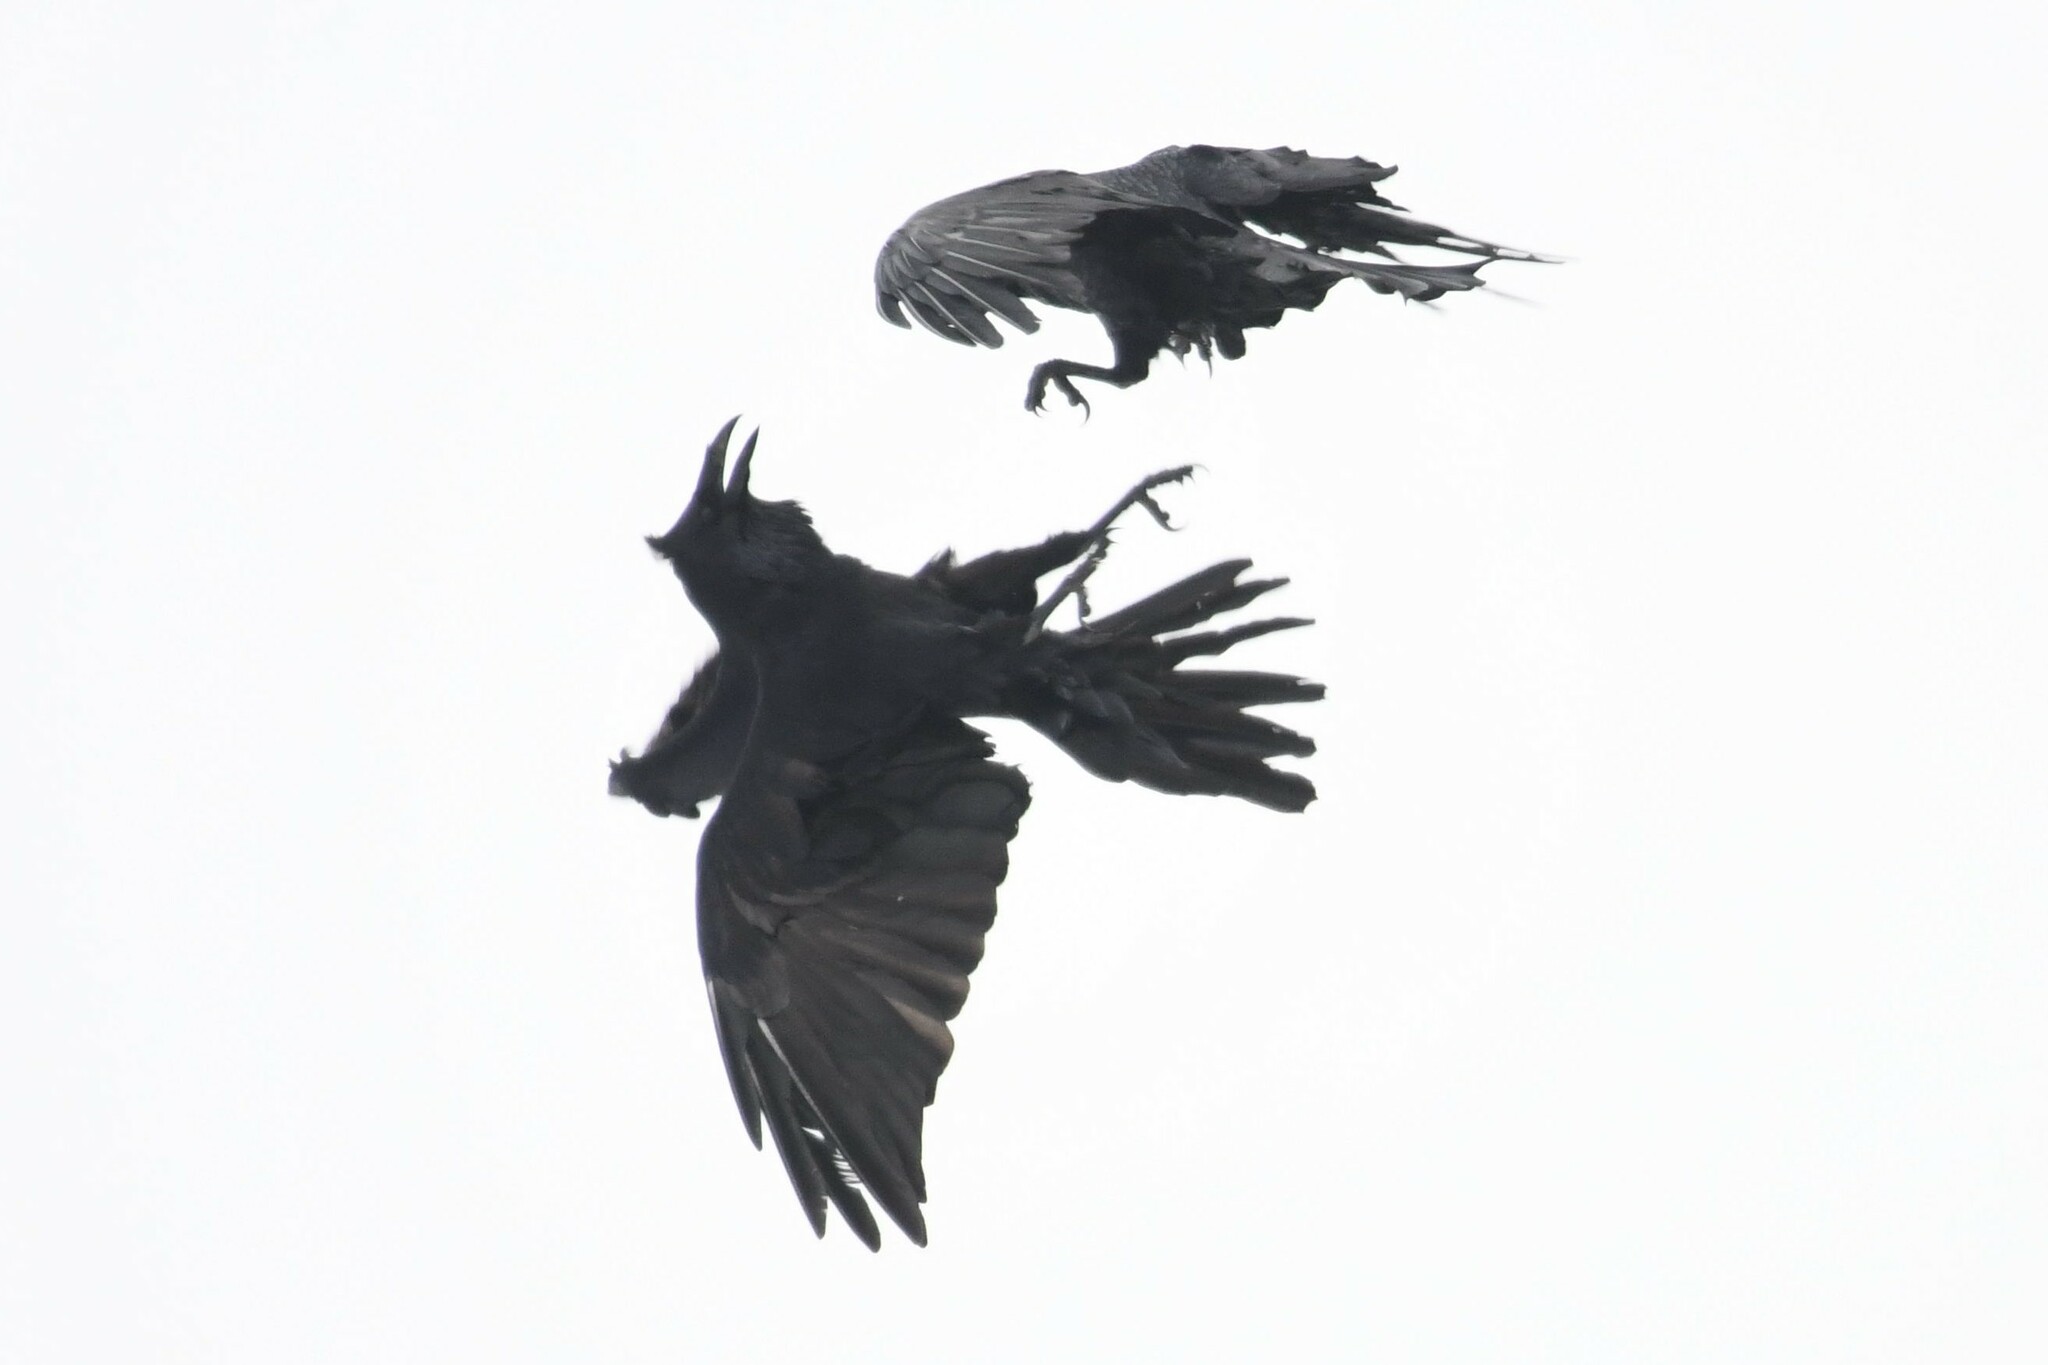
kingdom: Animalia
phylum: Chordata
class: Aves
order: Passeriformes
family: Corvidae
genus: Corvus
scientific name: Corvus corax
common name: Common raven
